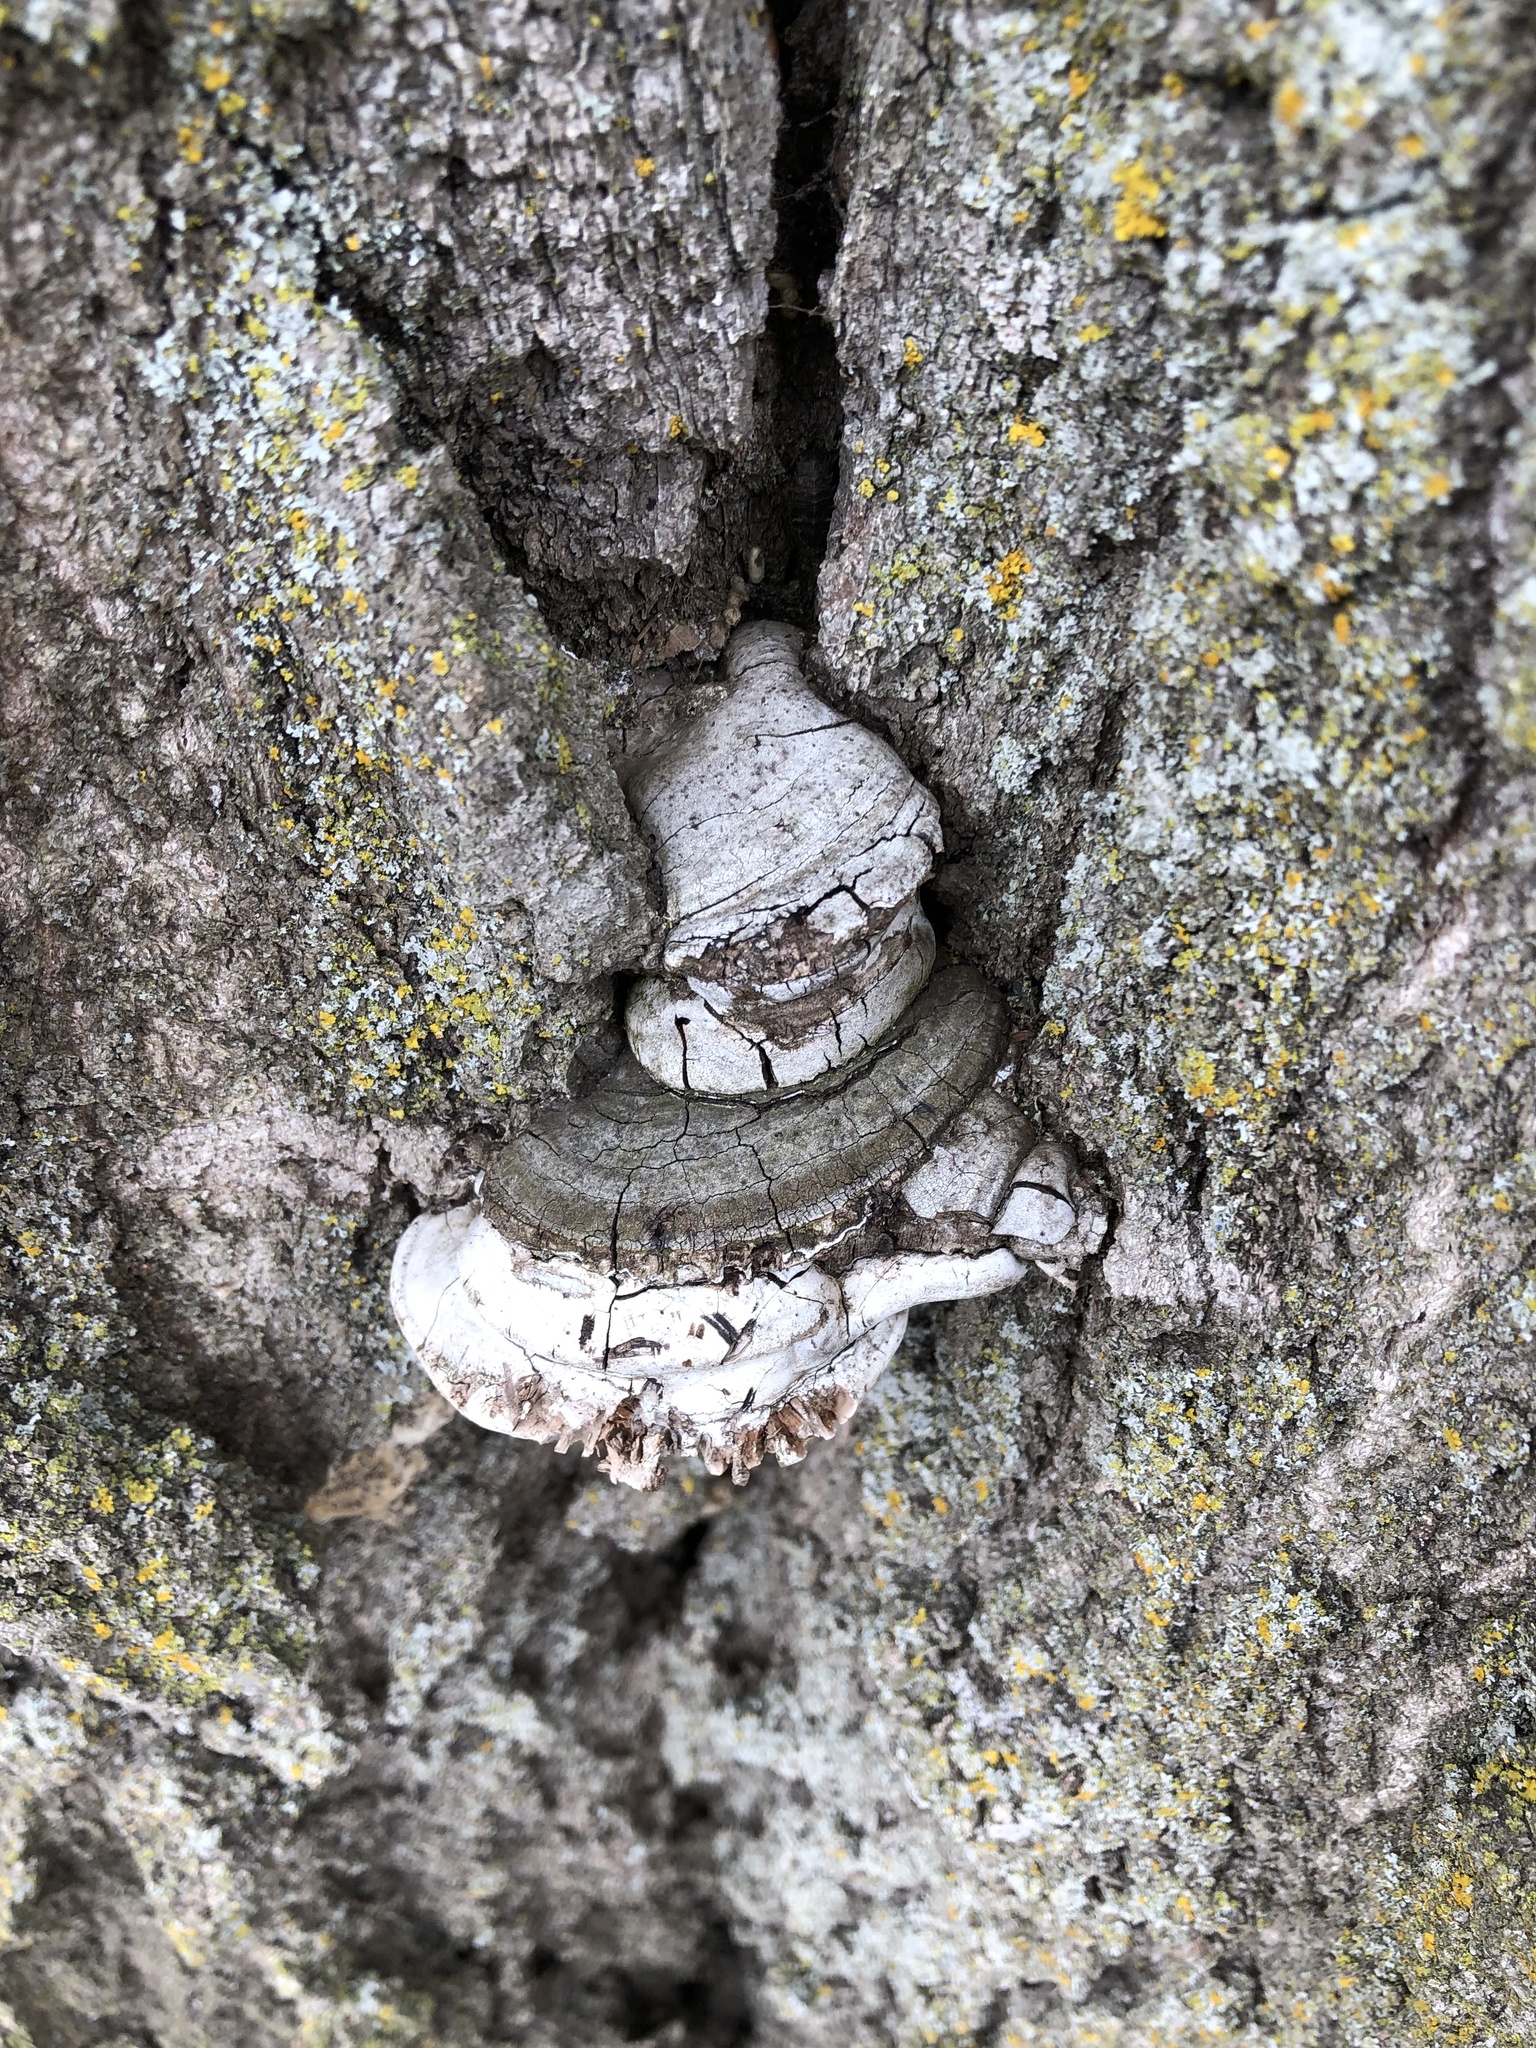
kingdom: Fungi
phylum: Basidiomycota
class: Agaricomycetes
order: Polyporales
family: Polyporaceae
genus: Fomes
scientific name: Fomes fomentarius
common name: Hoof fungus
